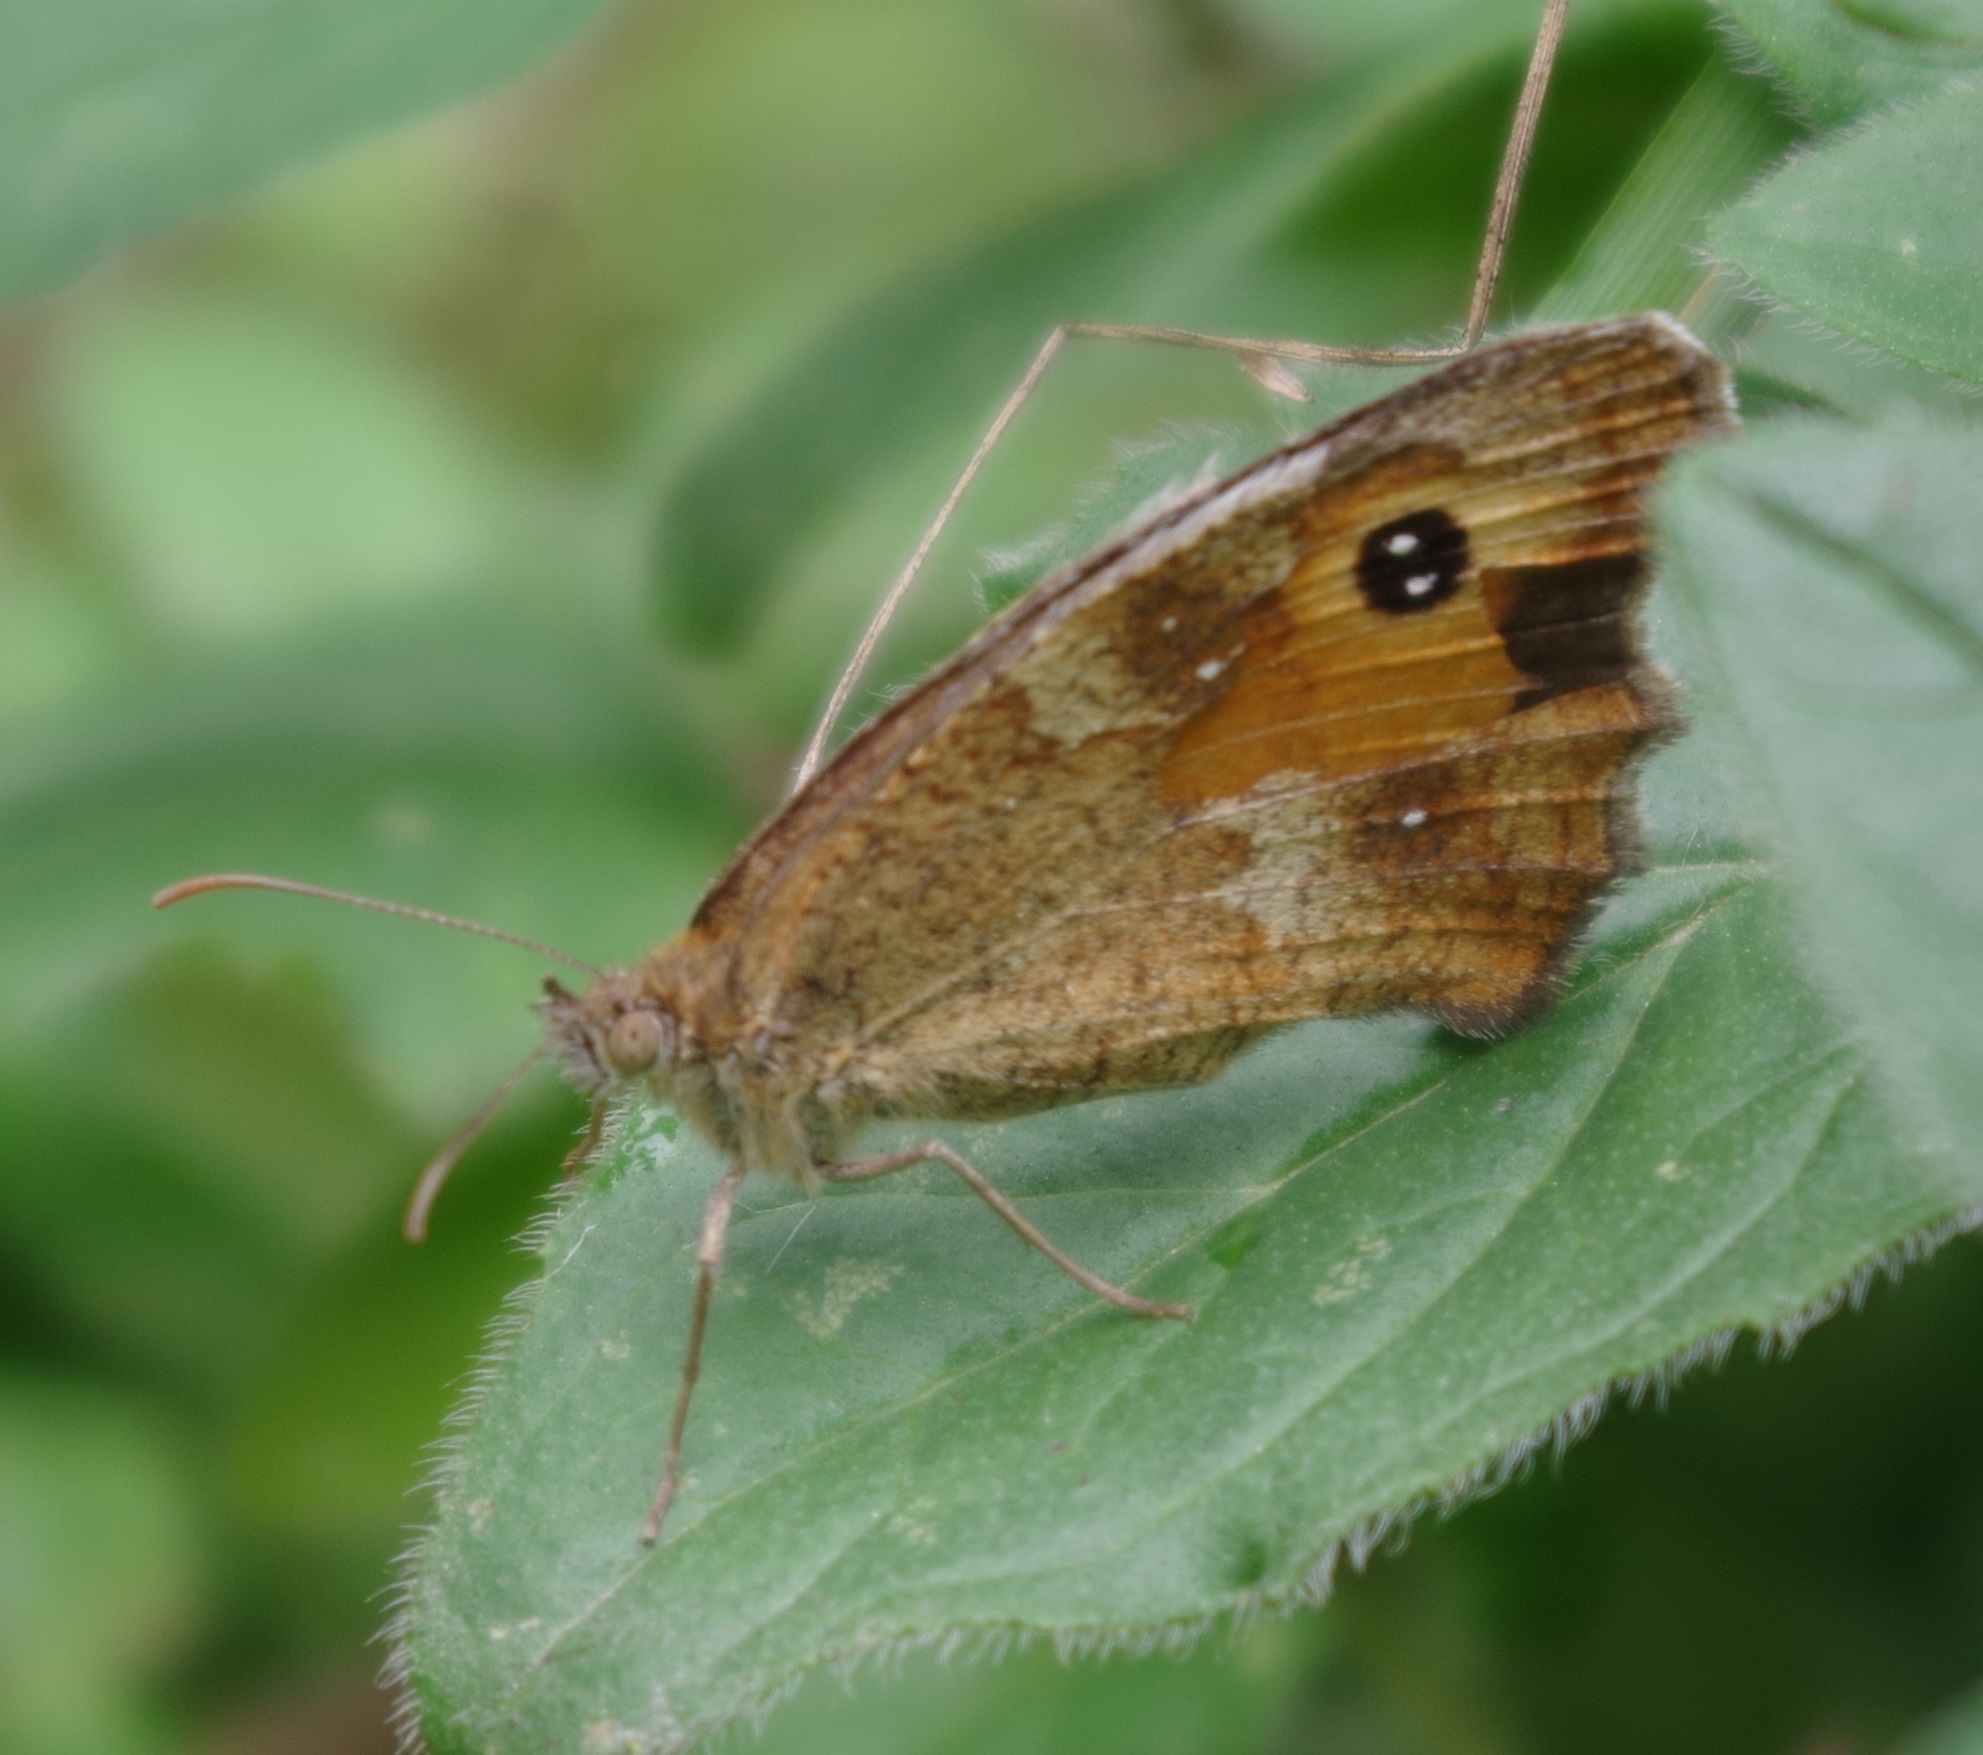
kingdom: Animalia
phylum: Arthropoda
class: Insecta
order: Lepidoptera
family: Nymphalidae
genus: Pyronia
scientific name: Pyronia tithonus
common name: Gatekeeper
